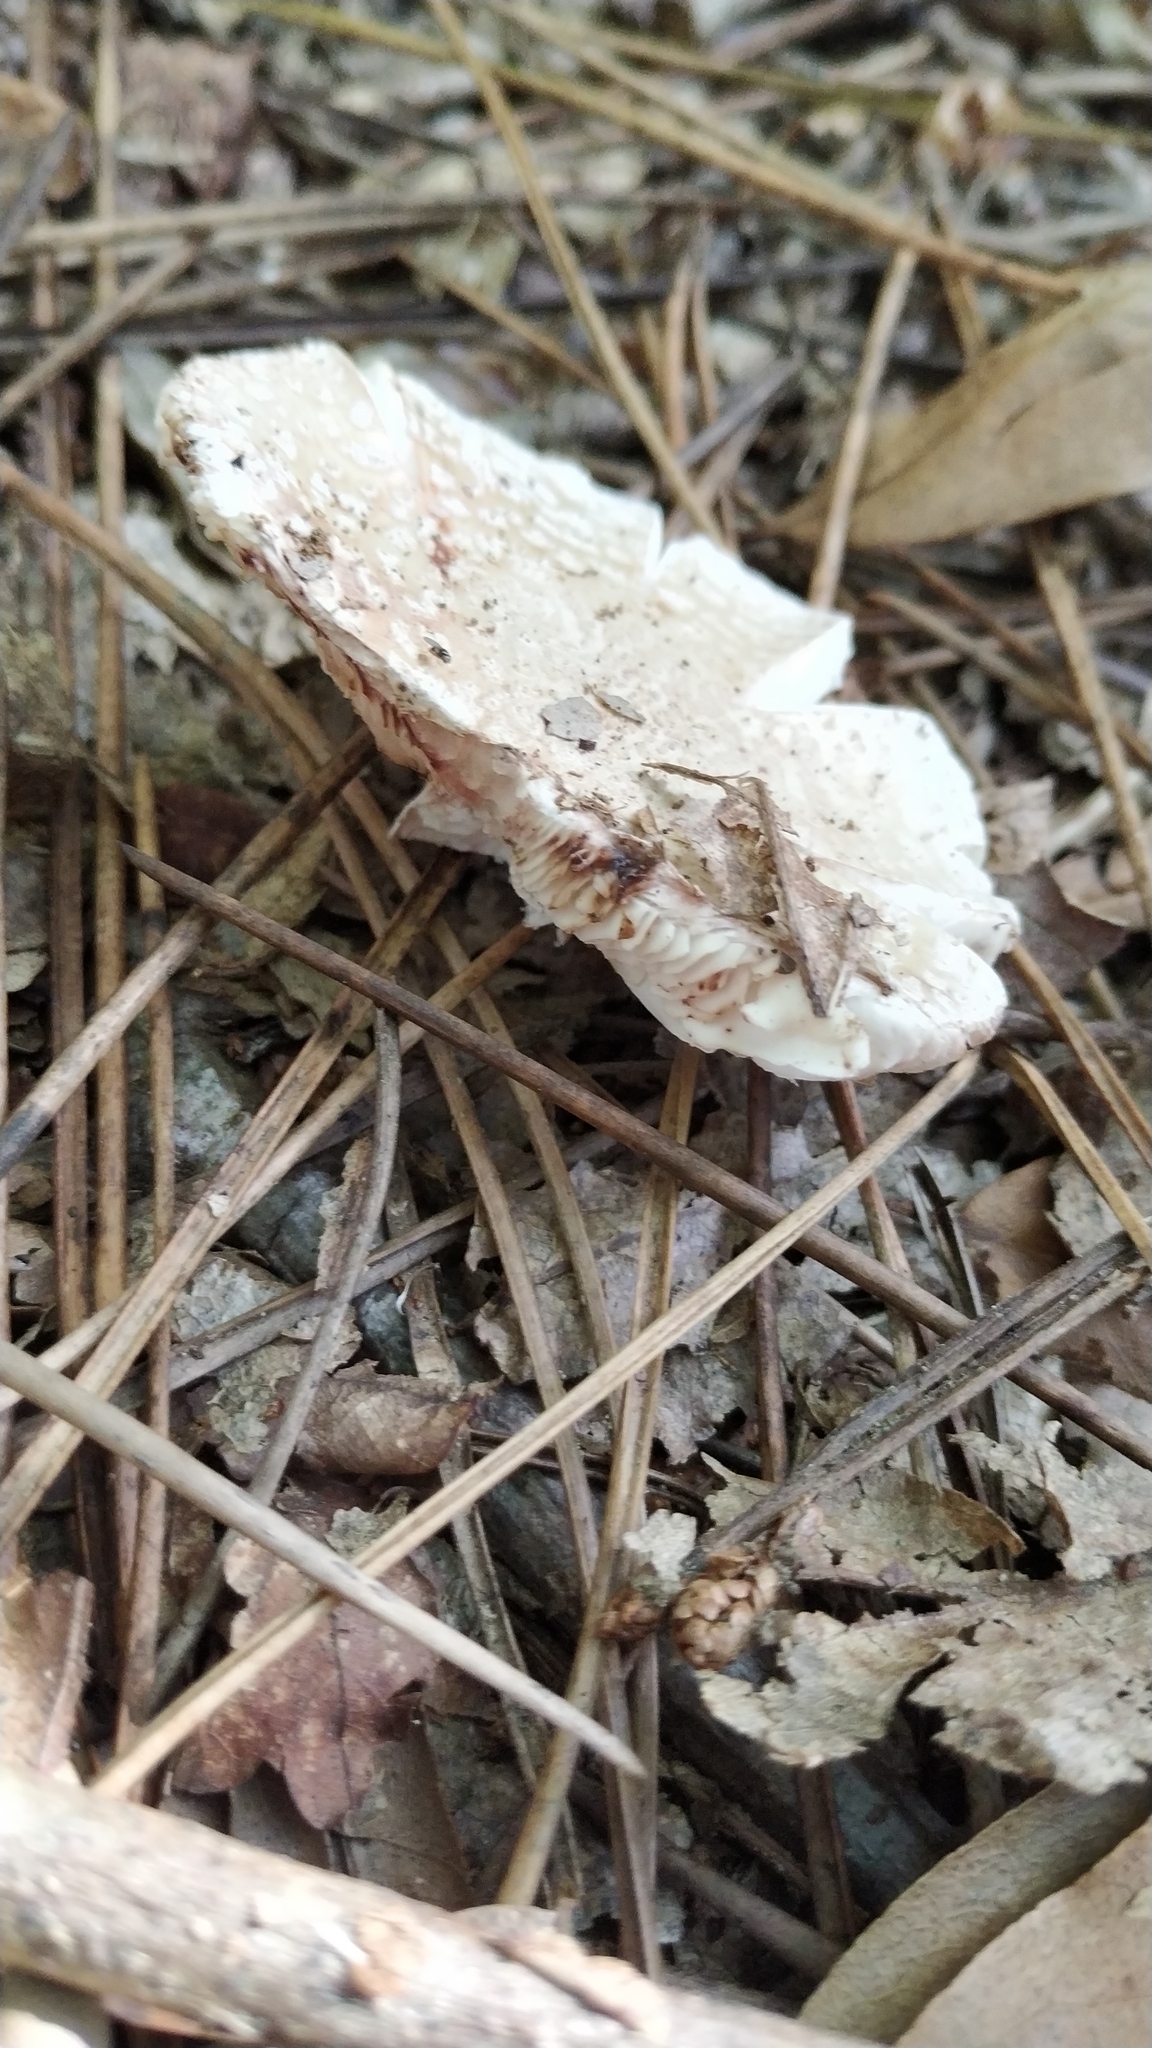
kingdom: Fungi
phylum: Basidiomycota
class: Agaricomycetes
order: Agaricales
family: Amanitaceae
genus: Amanita
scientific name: Amanita rubescens
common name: Blusher
